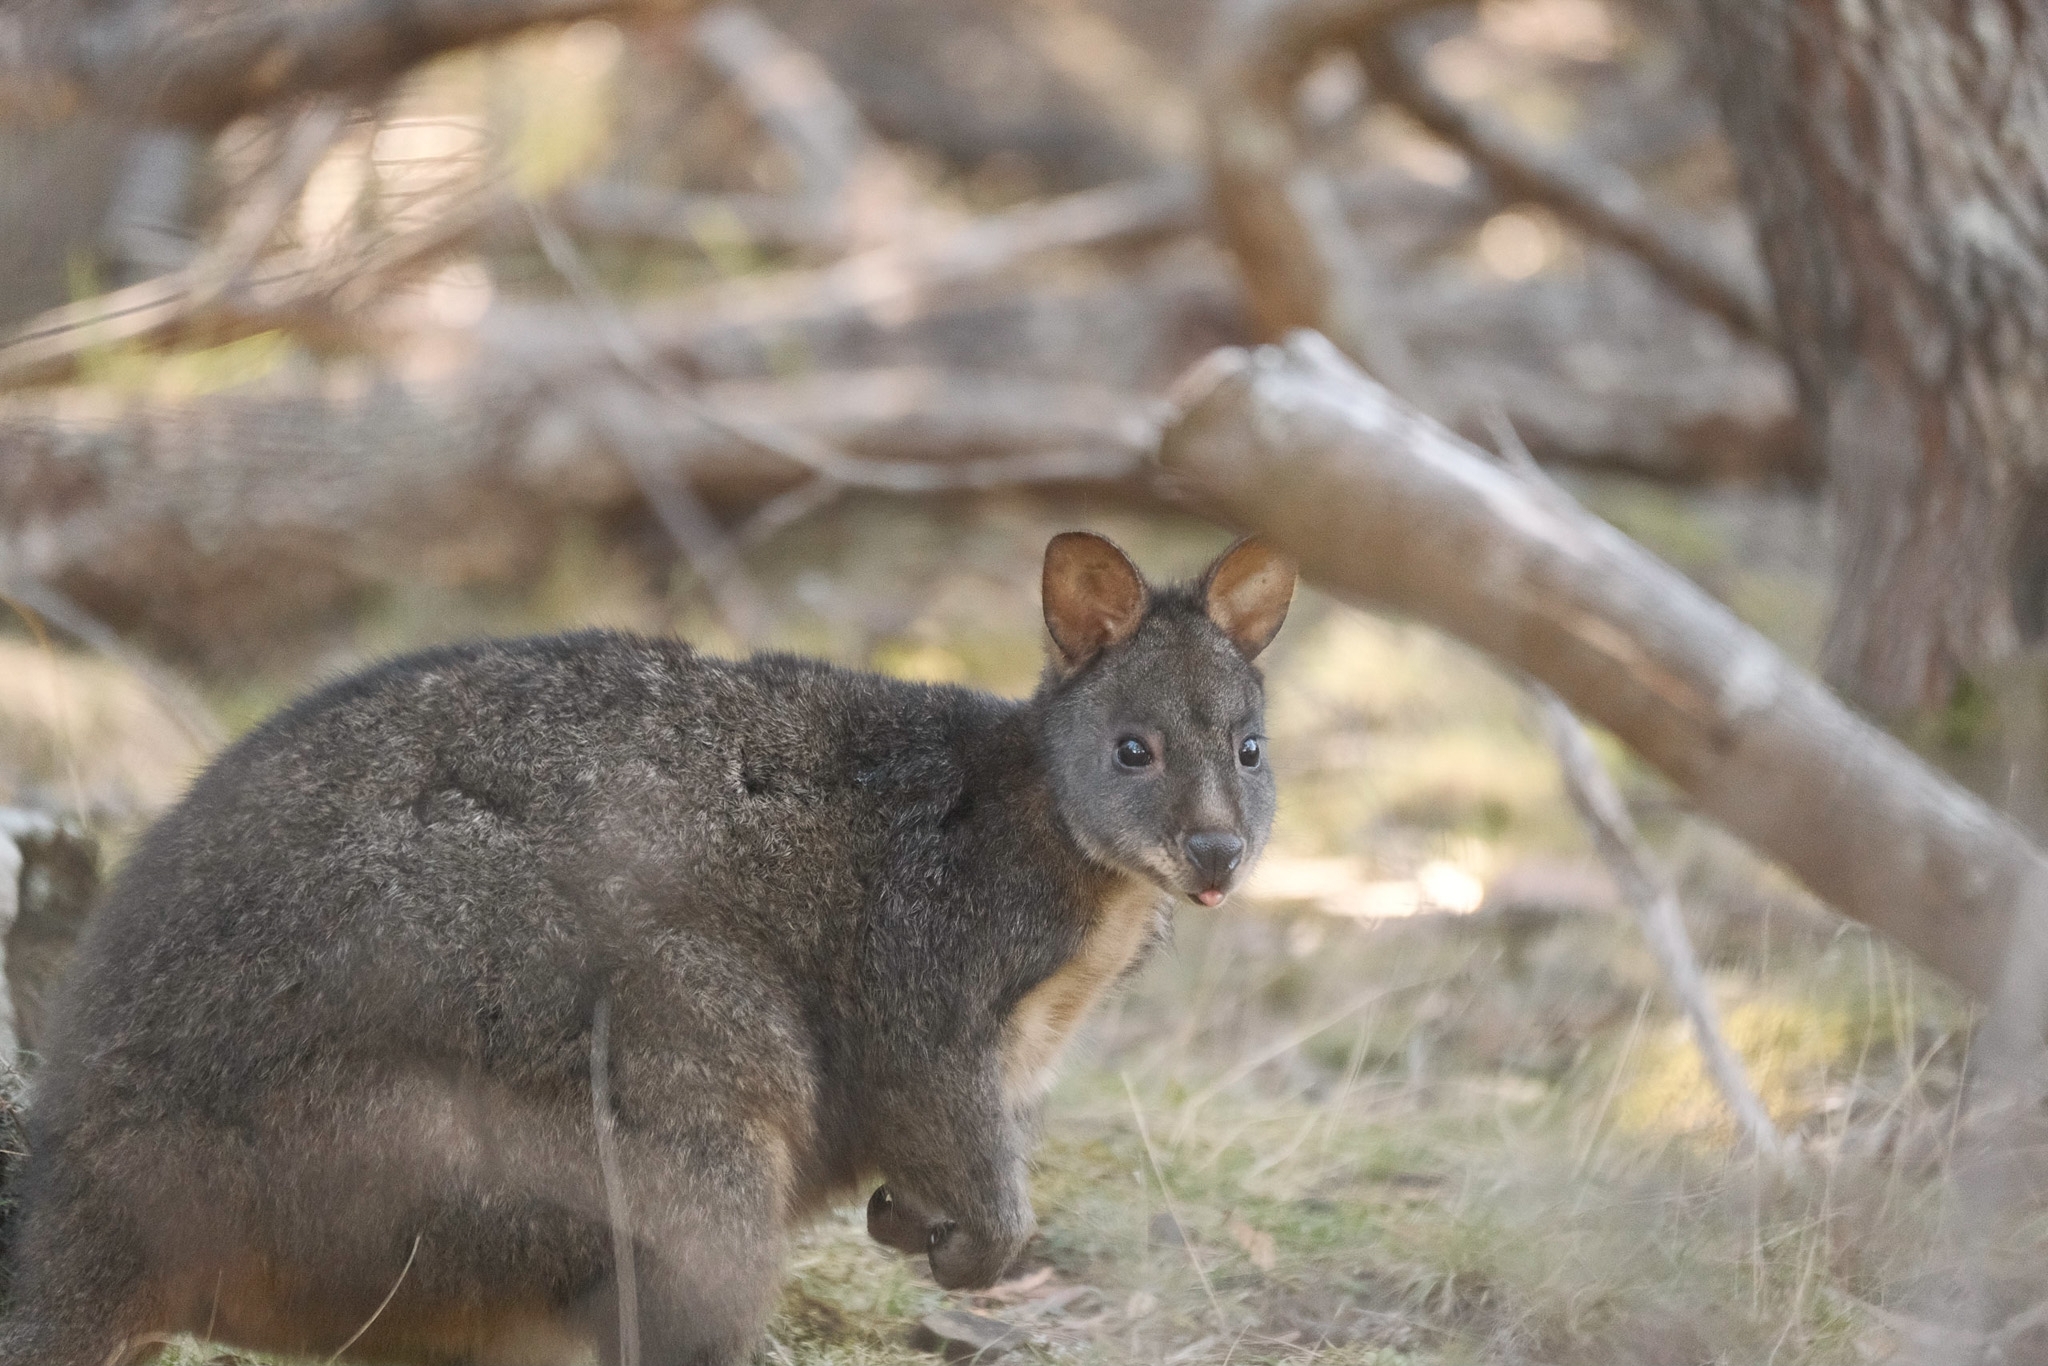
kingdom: Animalia
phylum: Chordata
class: Mammalia
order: Diprotodontia
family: Macropodidae
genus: Thylogale
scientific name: Thylogale billardierii
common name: Tasmanian pademelon
